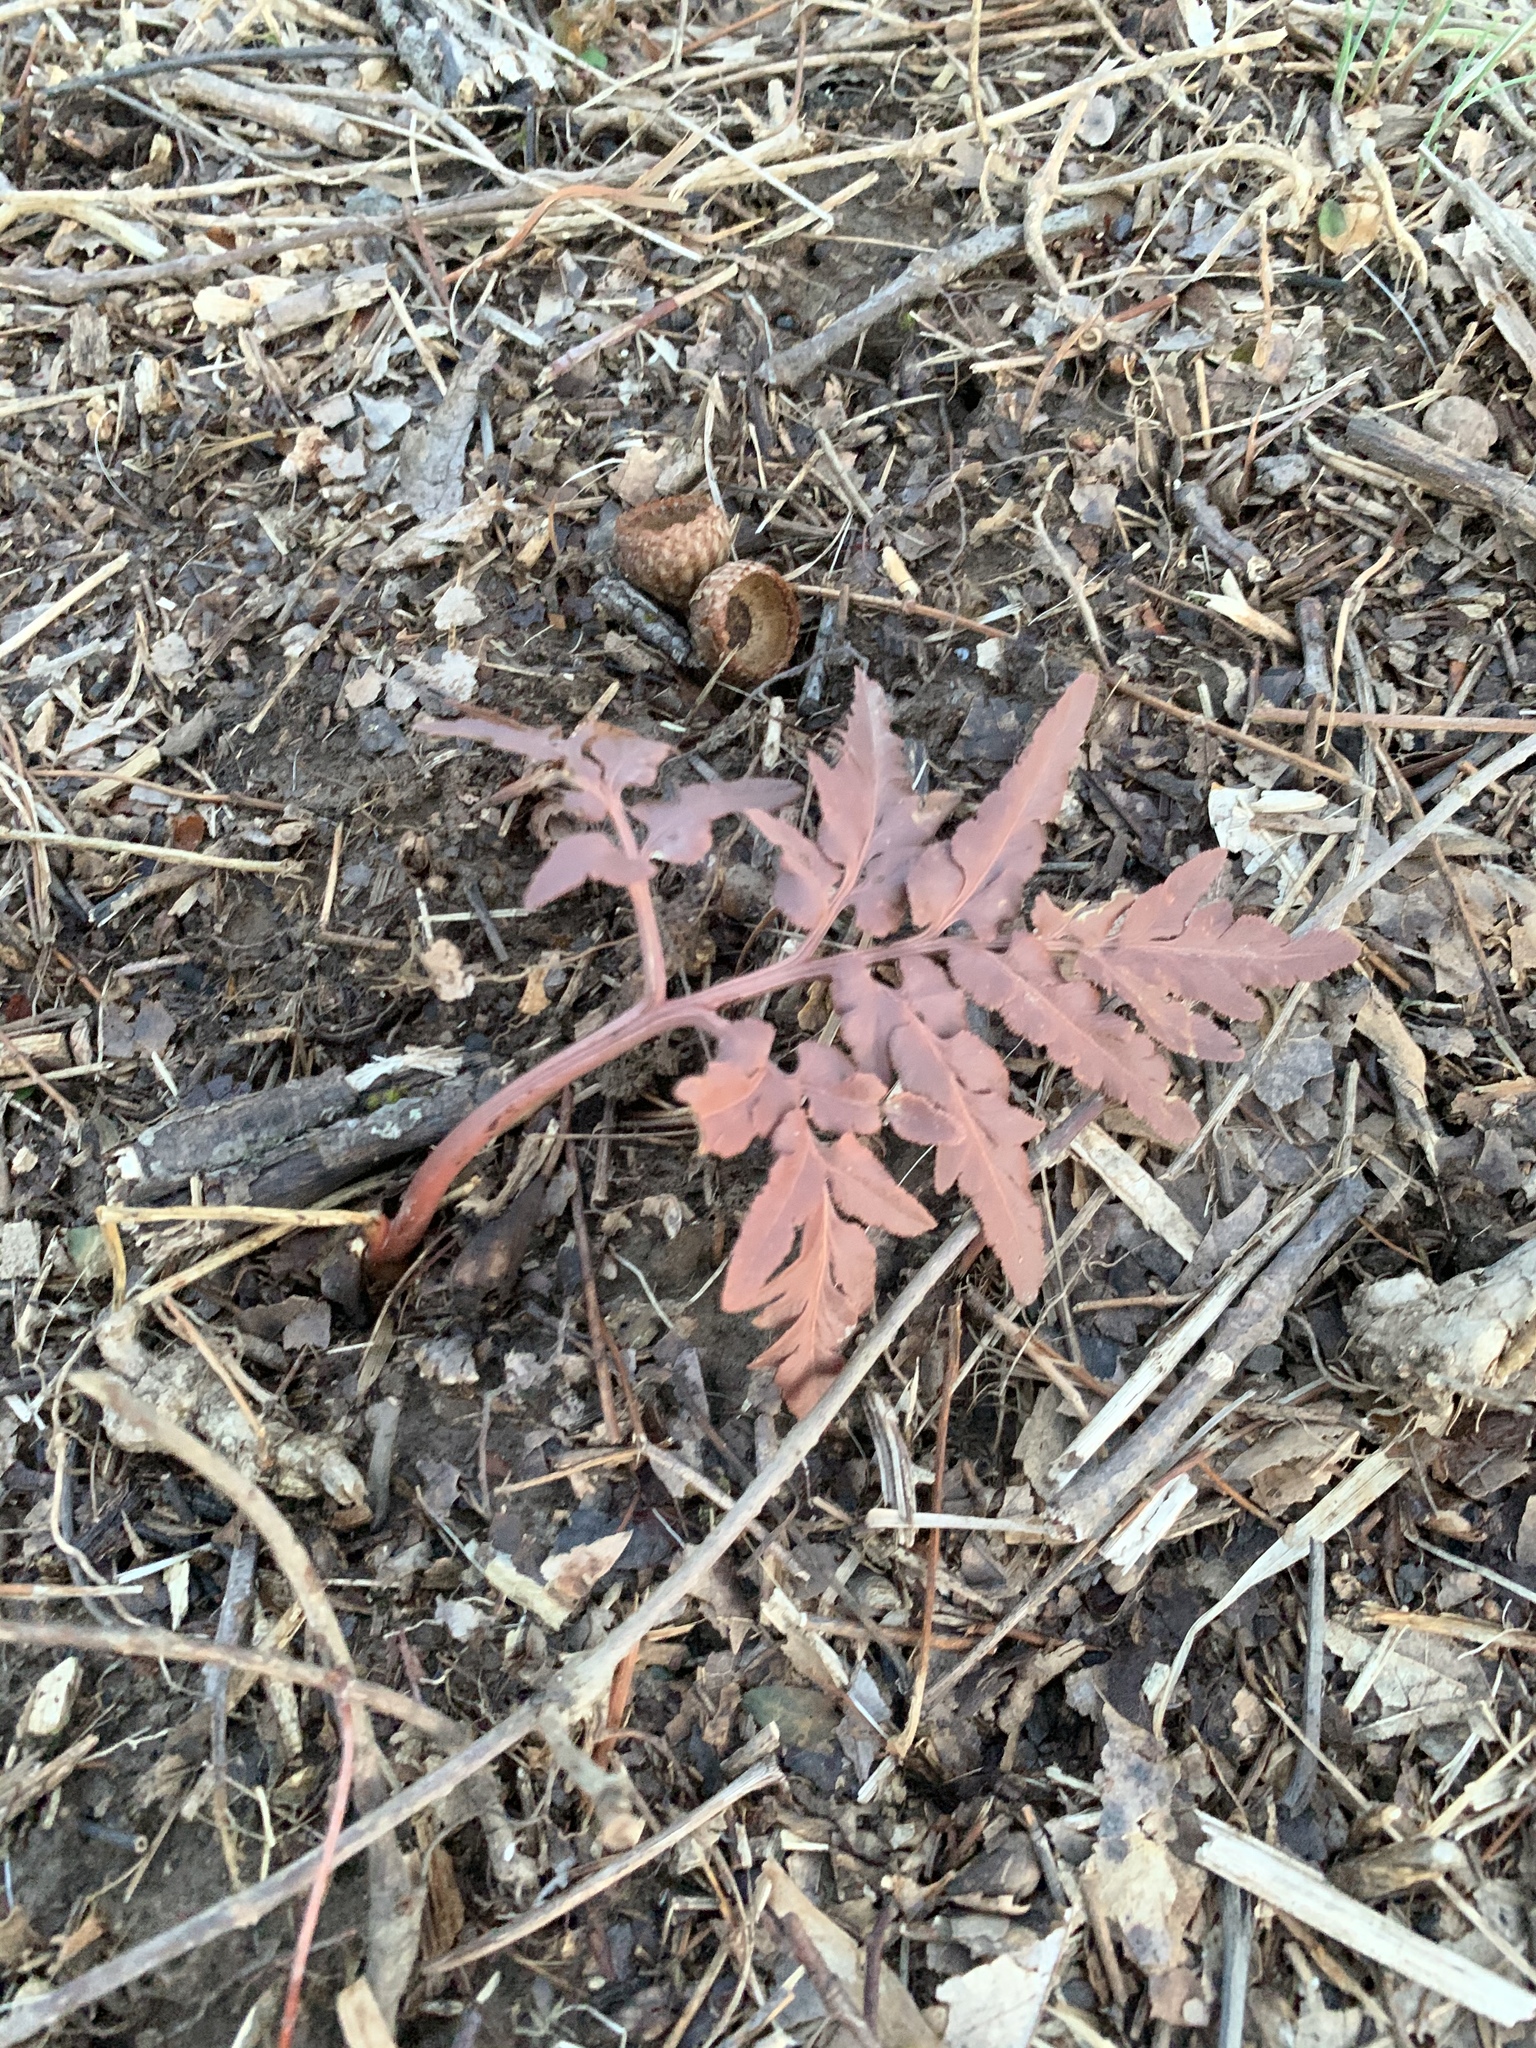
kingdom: Plantae
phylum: Tracheophyta
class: Polypodiopsida
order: Ophioglossales
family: Ophioglossaceae
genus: Sceptridium
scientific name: Sceptridium dissectum
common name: Cut-leaved grapefern
